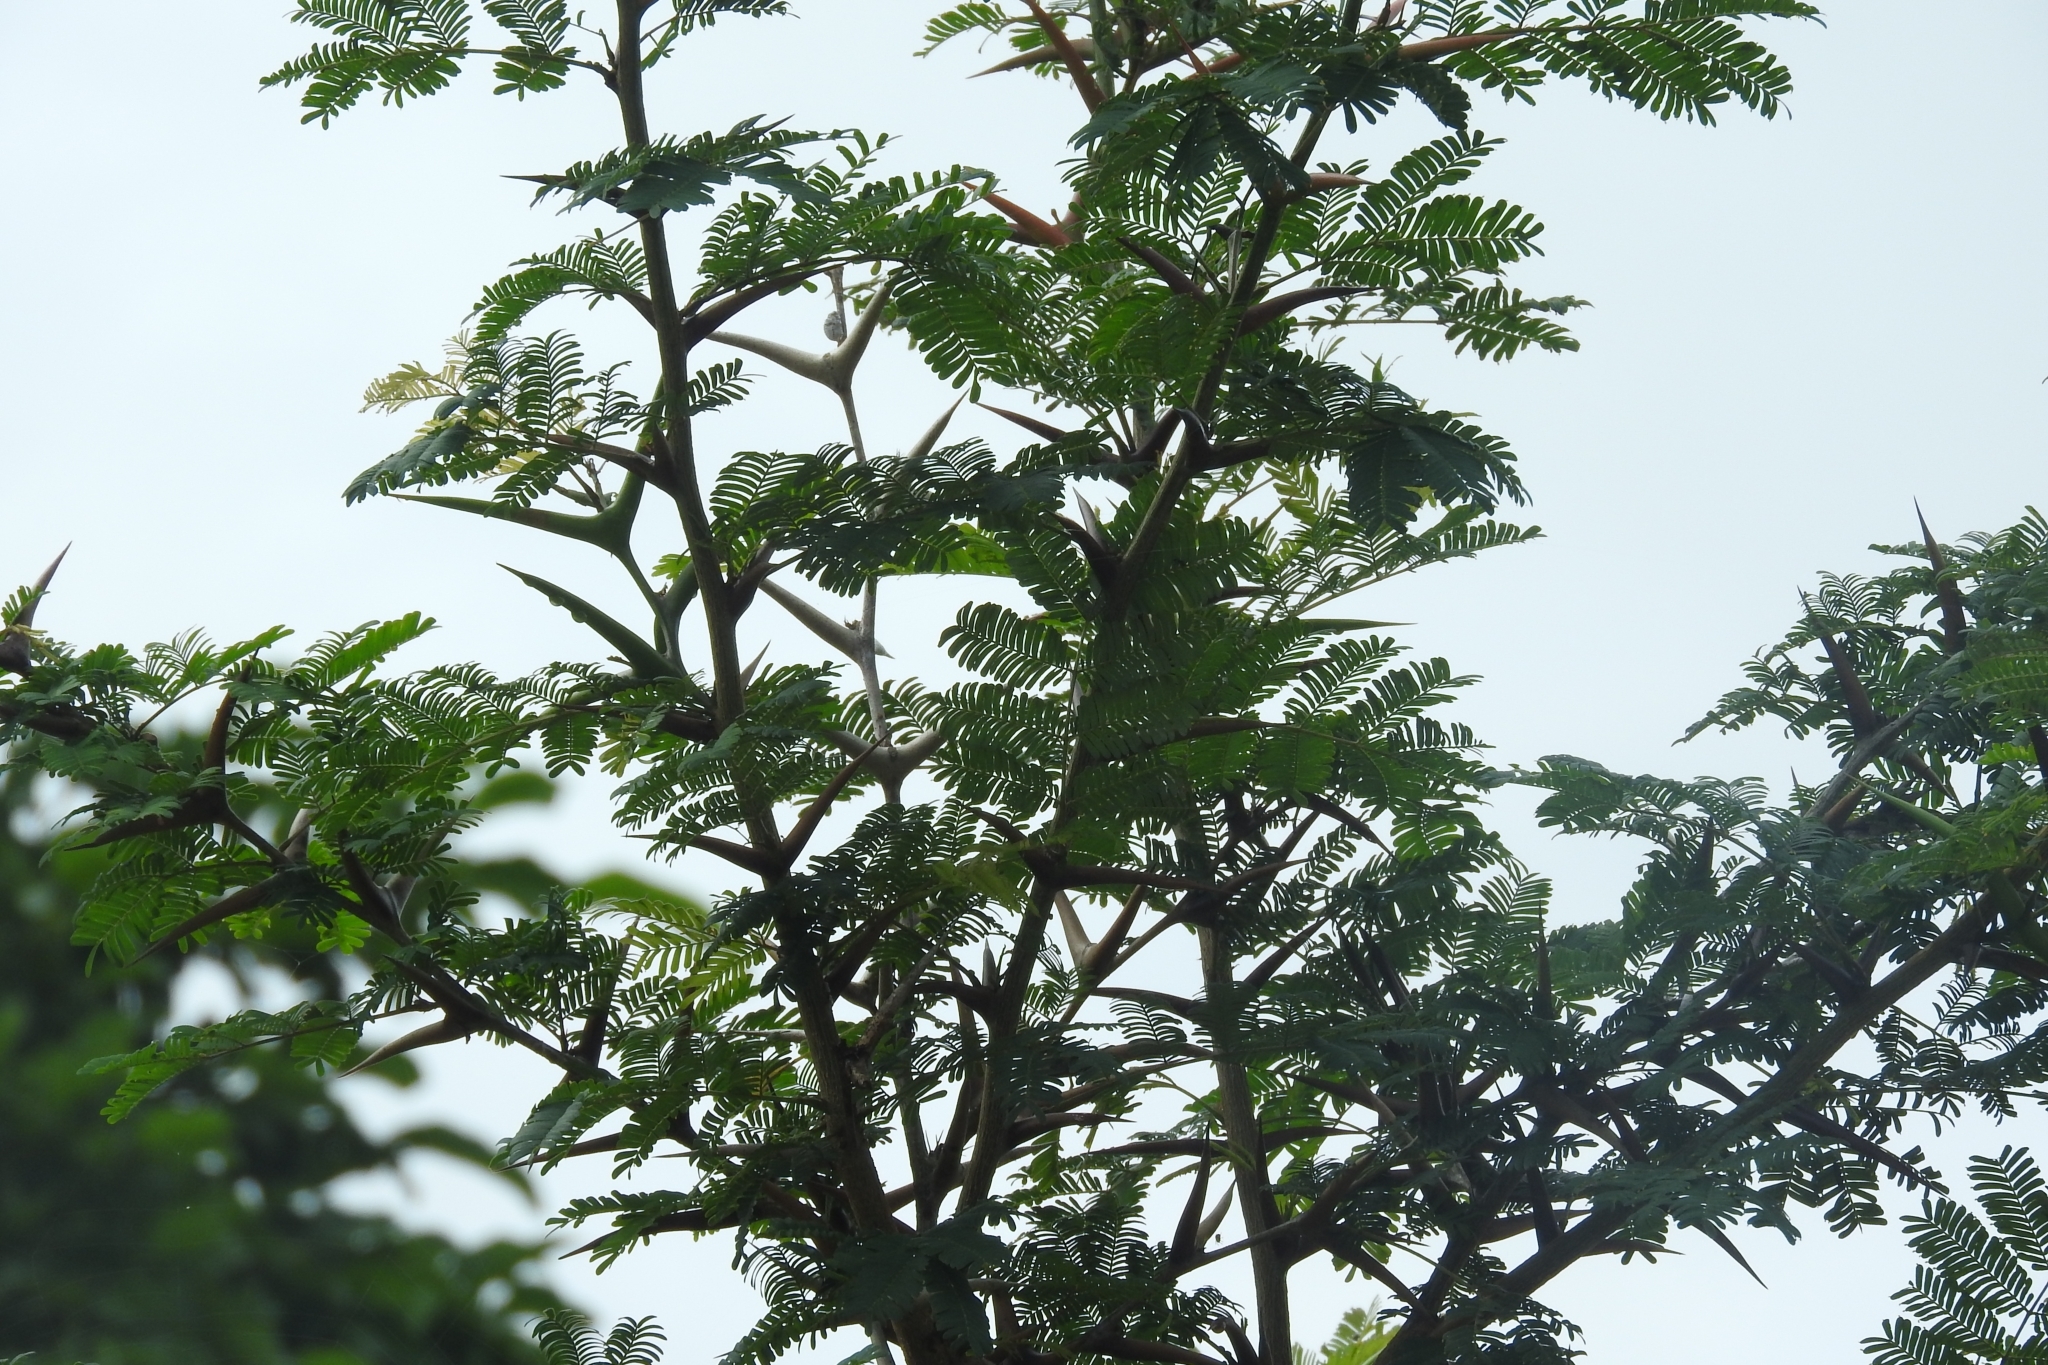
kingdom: Plantae
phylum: Tracheophyta
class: Magnoliopsida
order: Fabales
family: Fabaceae
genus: Vachellia
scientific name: Vachellia cornigera
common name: Bullhorn wattle
